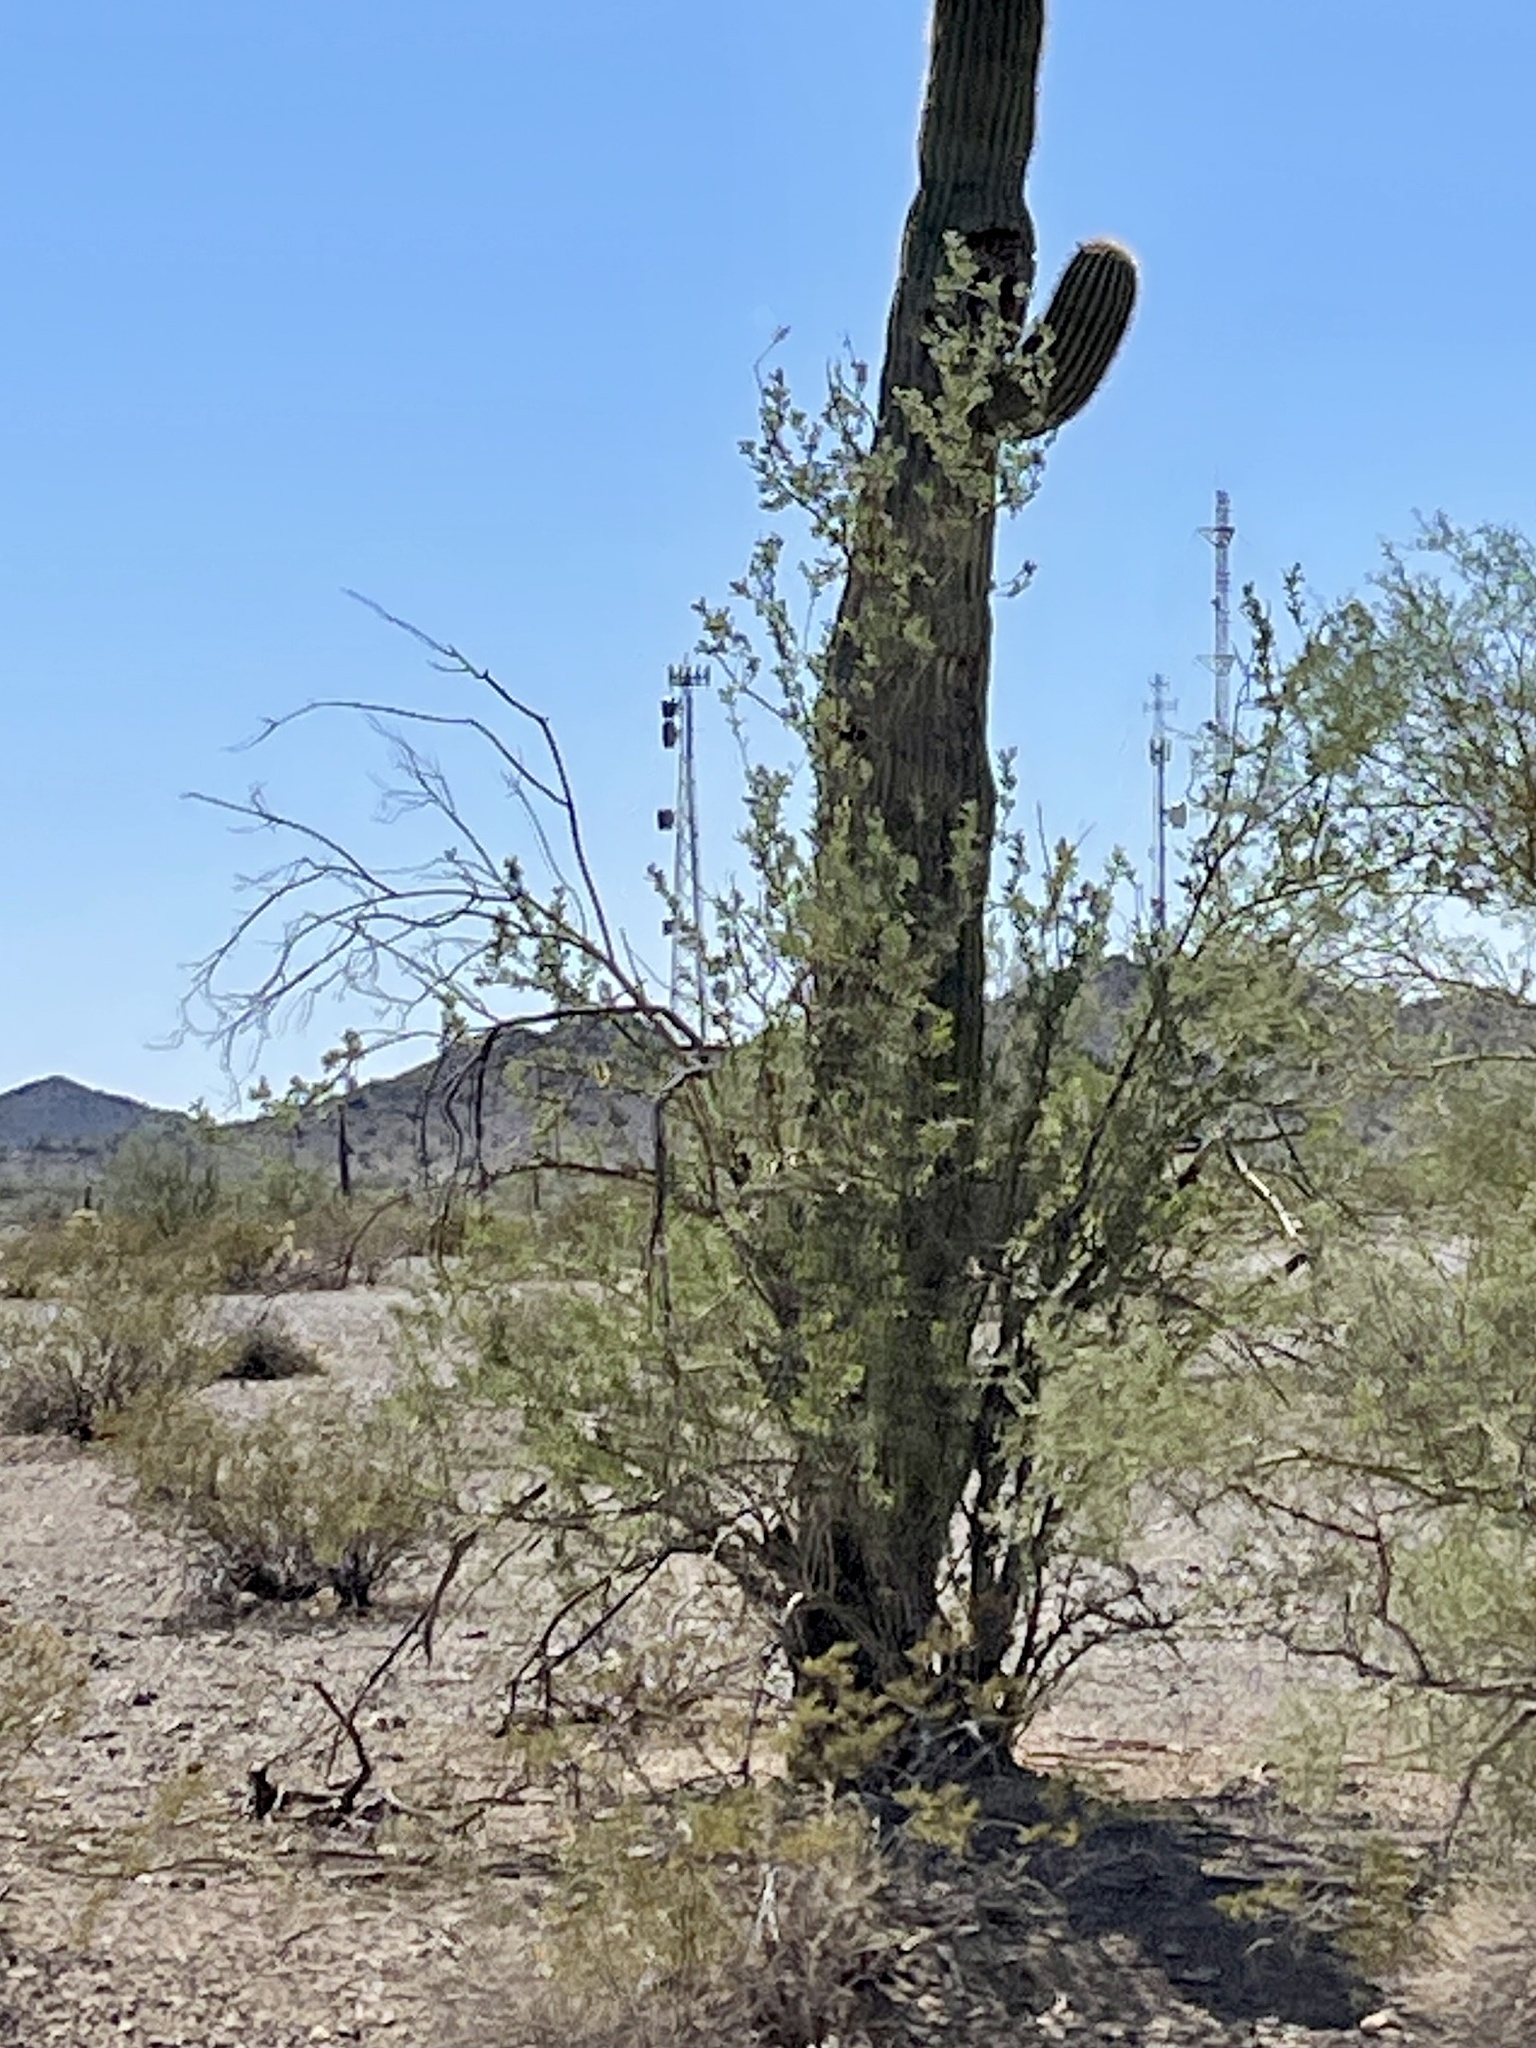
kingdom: Plantae
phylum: Tracheophyta
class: Magnoliopsida
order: Fabales
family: Fabaceae
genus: Olneya
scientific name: Olneya tesota
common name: Desert ironwood
